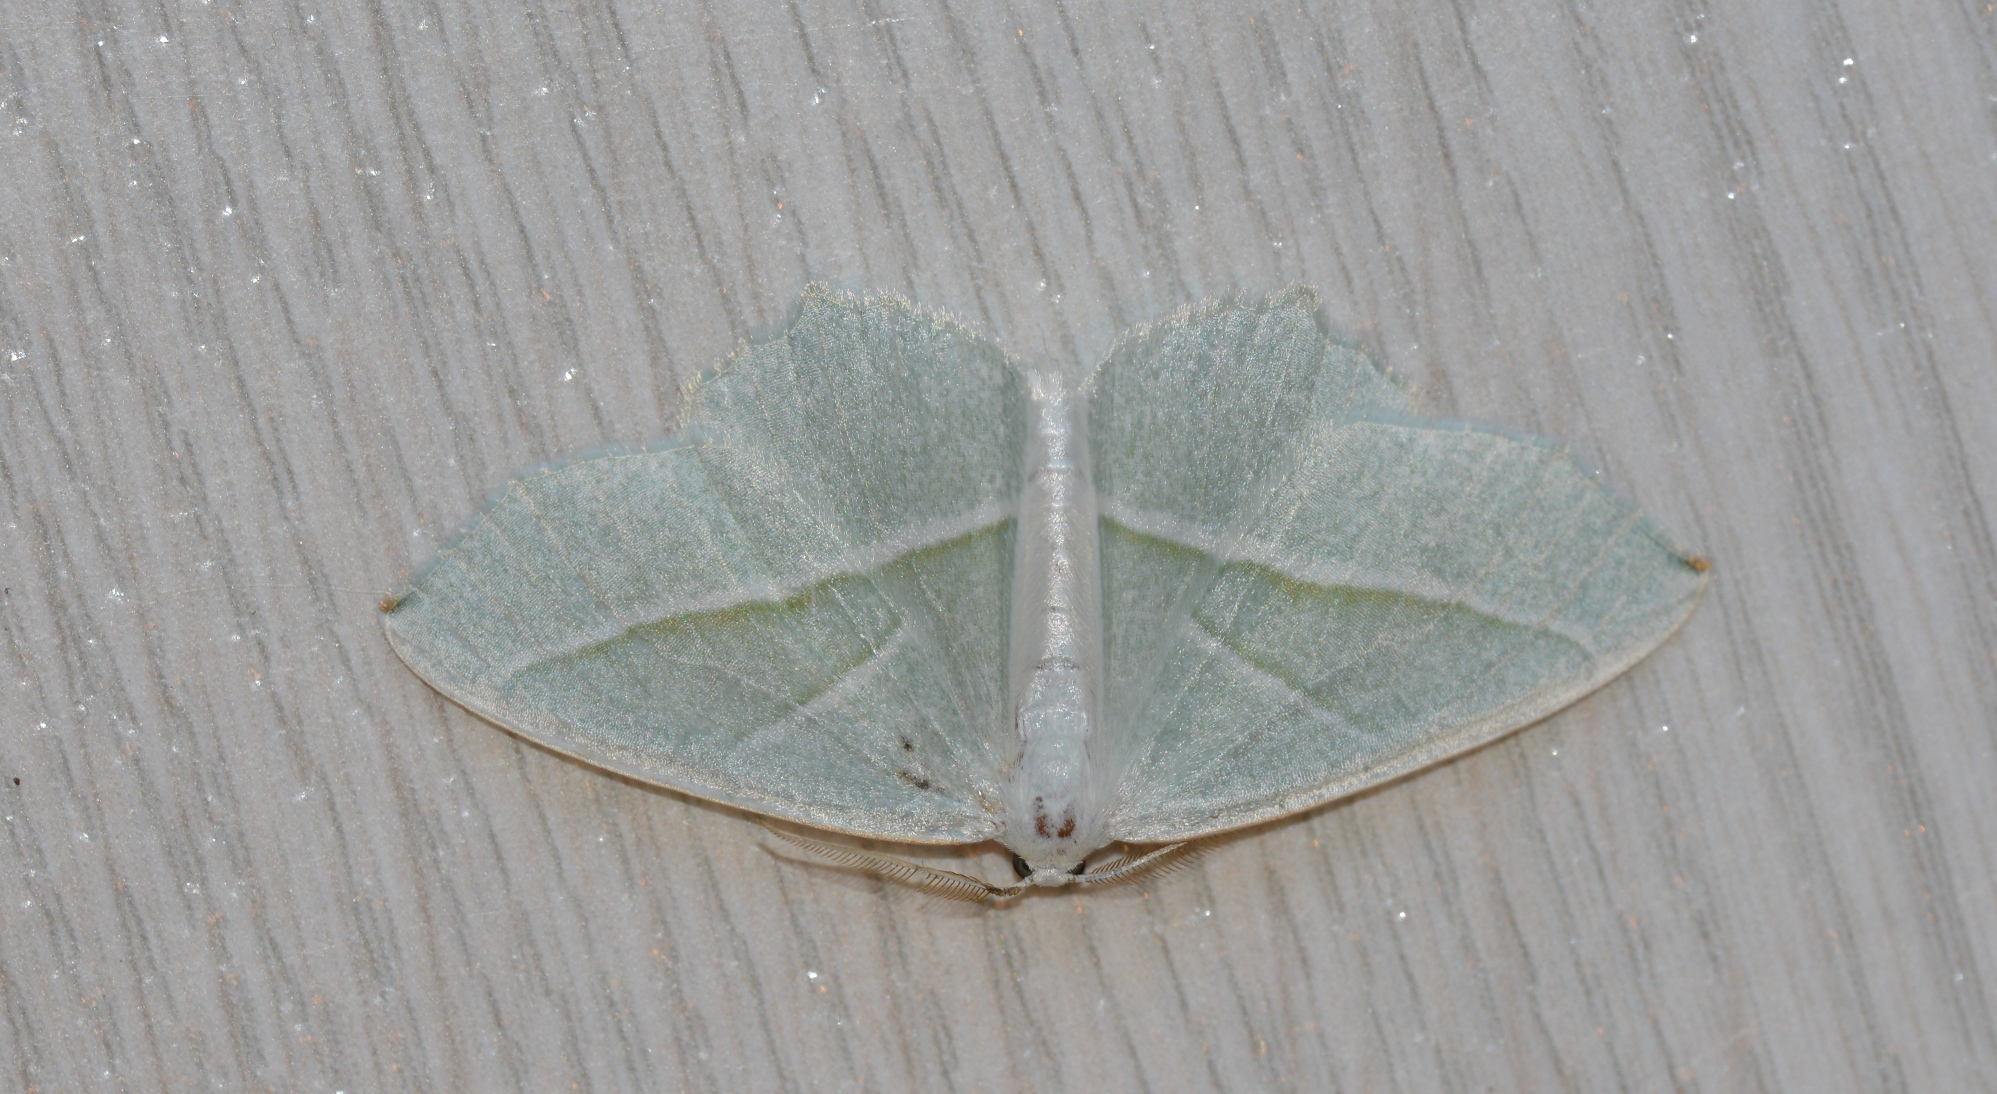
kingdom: Animalia
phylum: Arthropoda
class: Insecta
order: Lepidoptera
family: Geometridae
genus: Campaea
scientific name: Campaea margaritaria
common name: Light emerald
